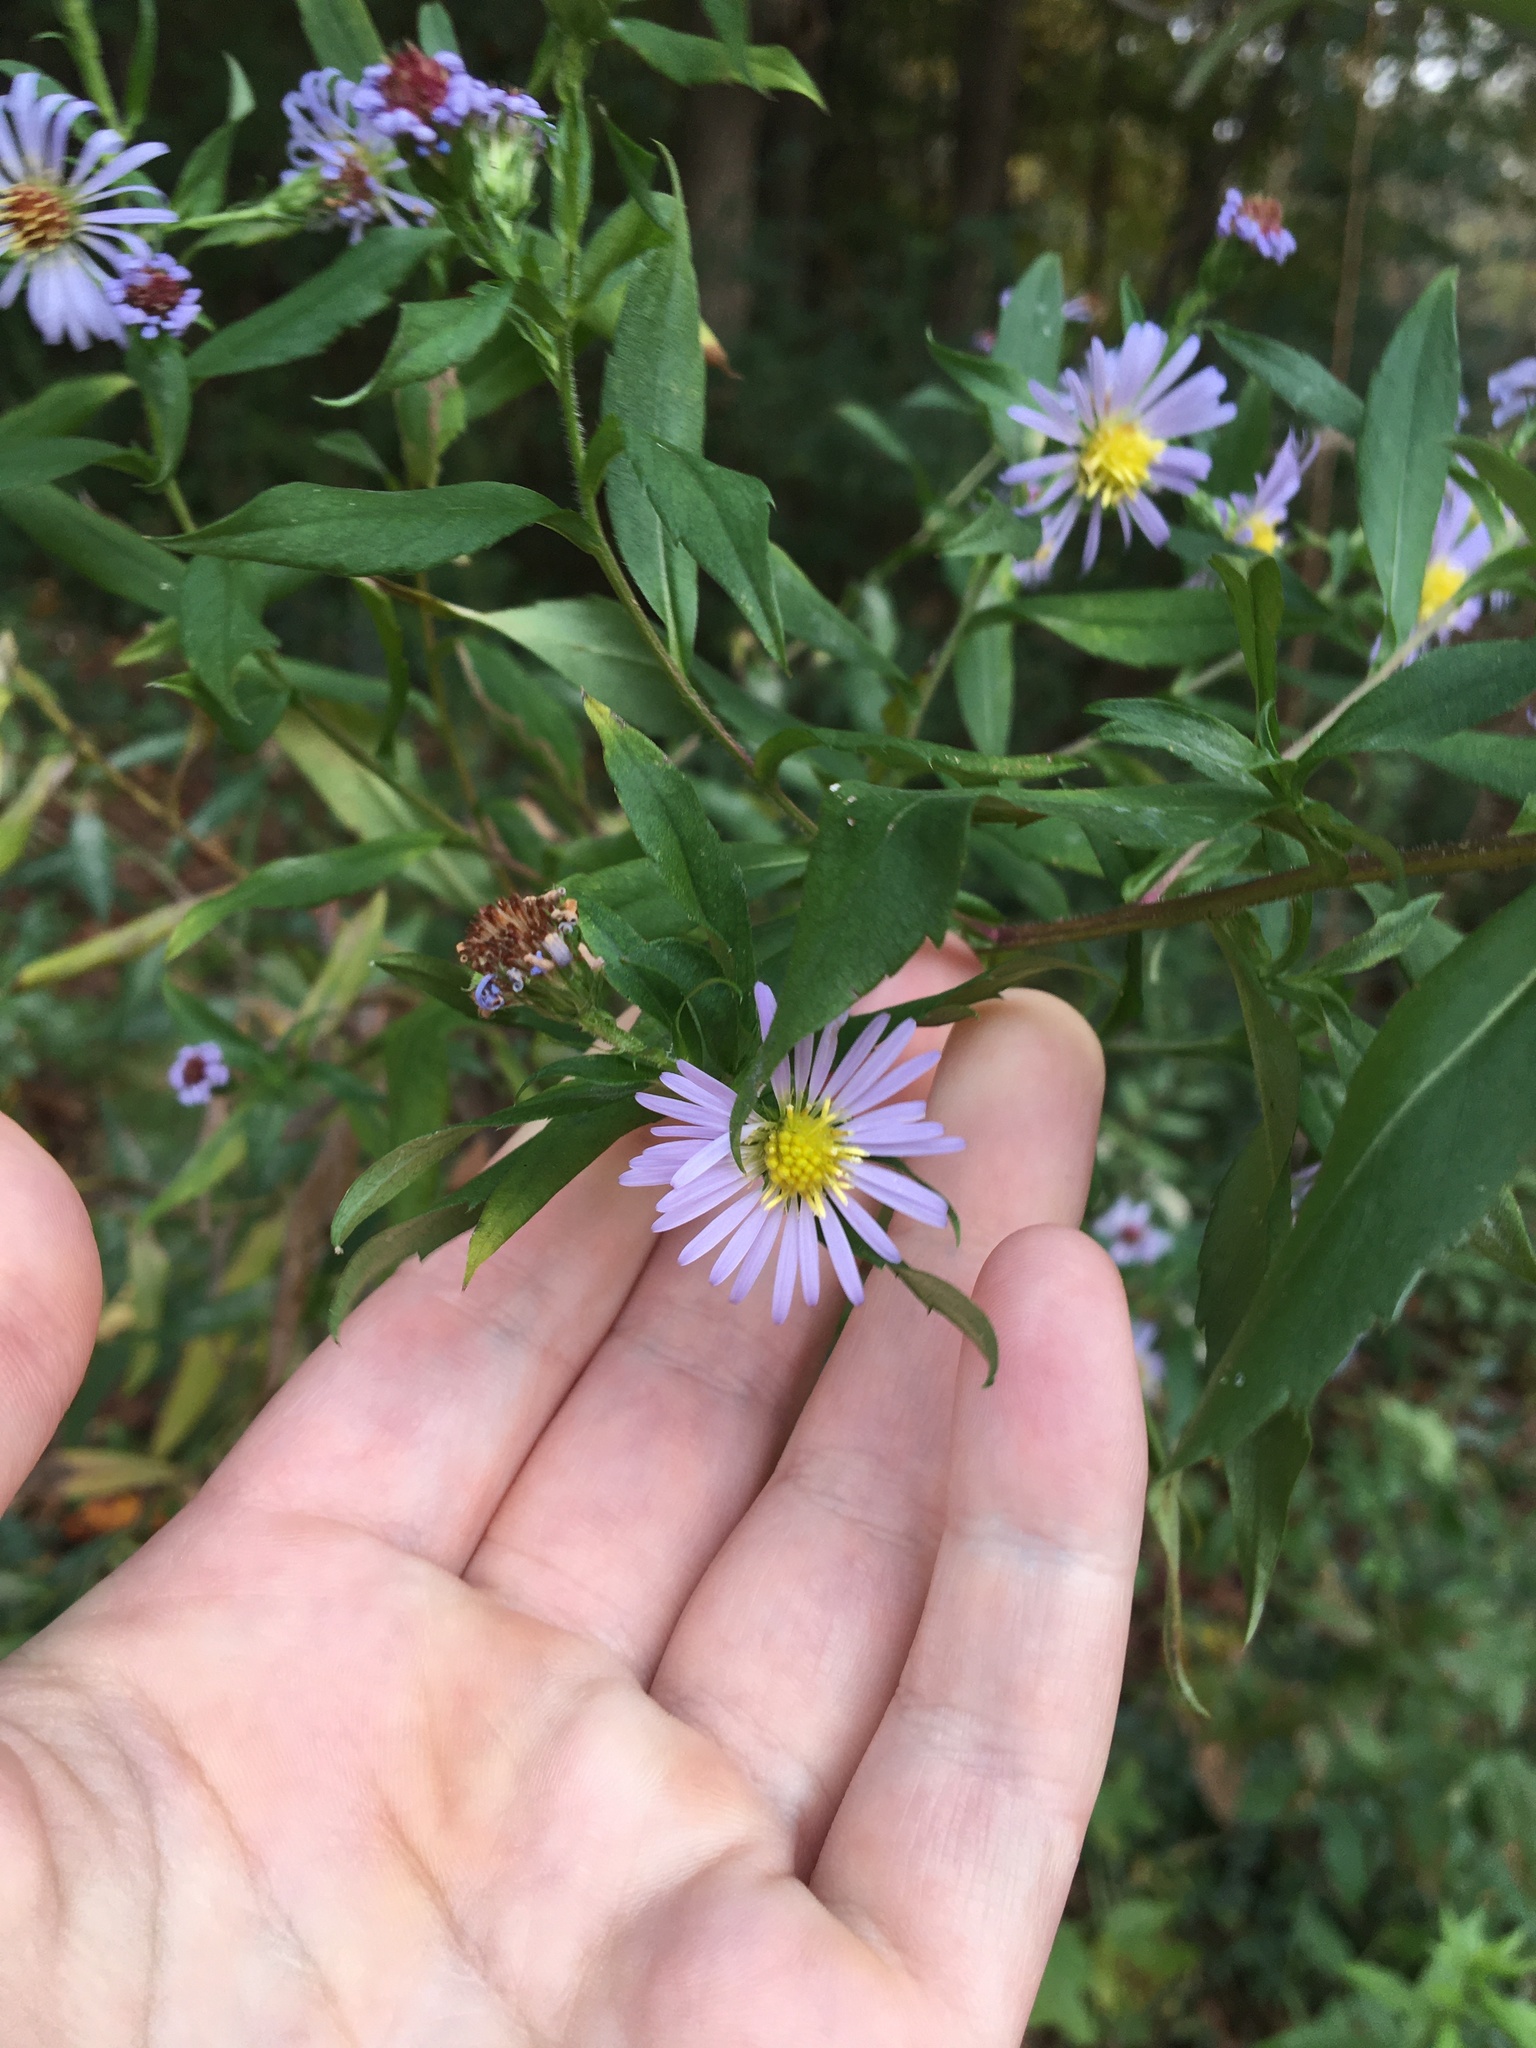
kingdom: Plantae
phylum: Tracheophyta
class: Magnoliopsida
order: Asterales
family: Asteraceae
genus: Symphyotrichum
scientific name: Symphyotrichum puniceum
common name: Bog aster
